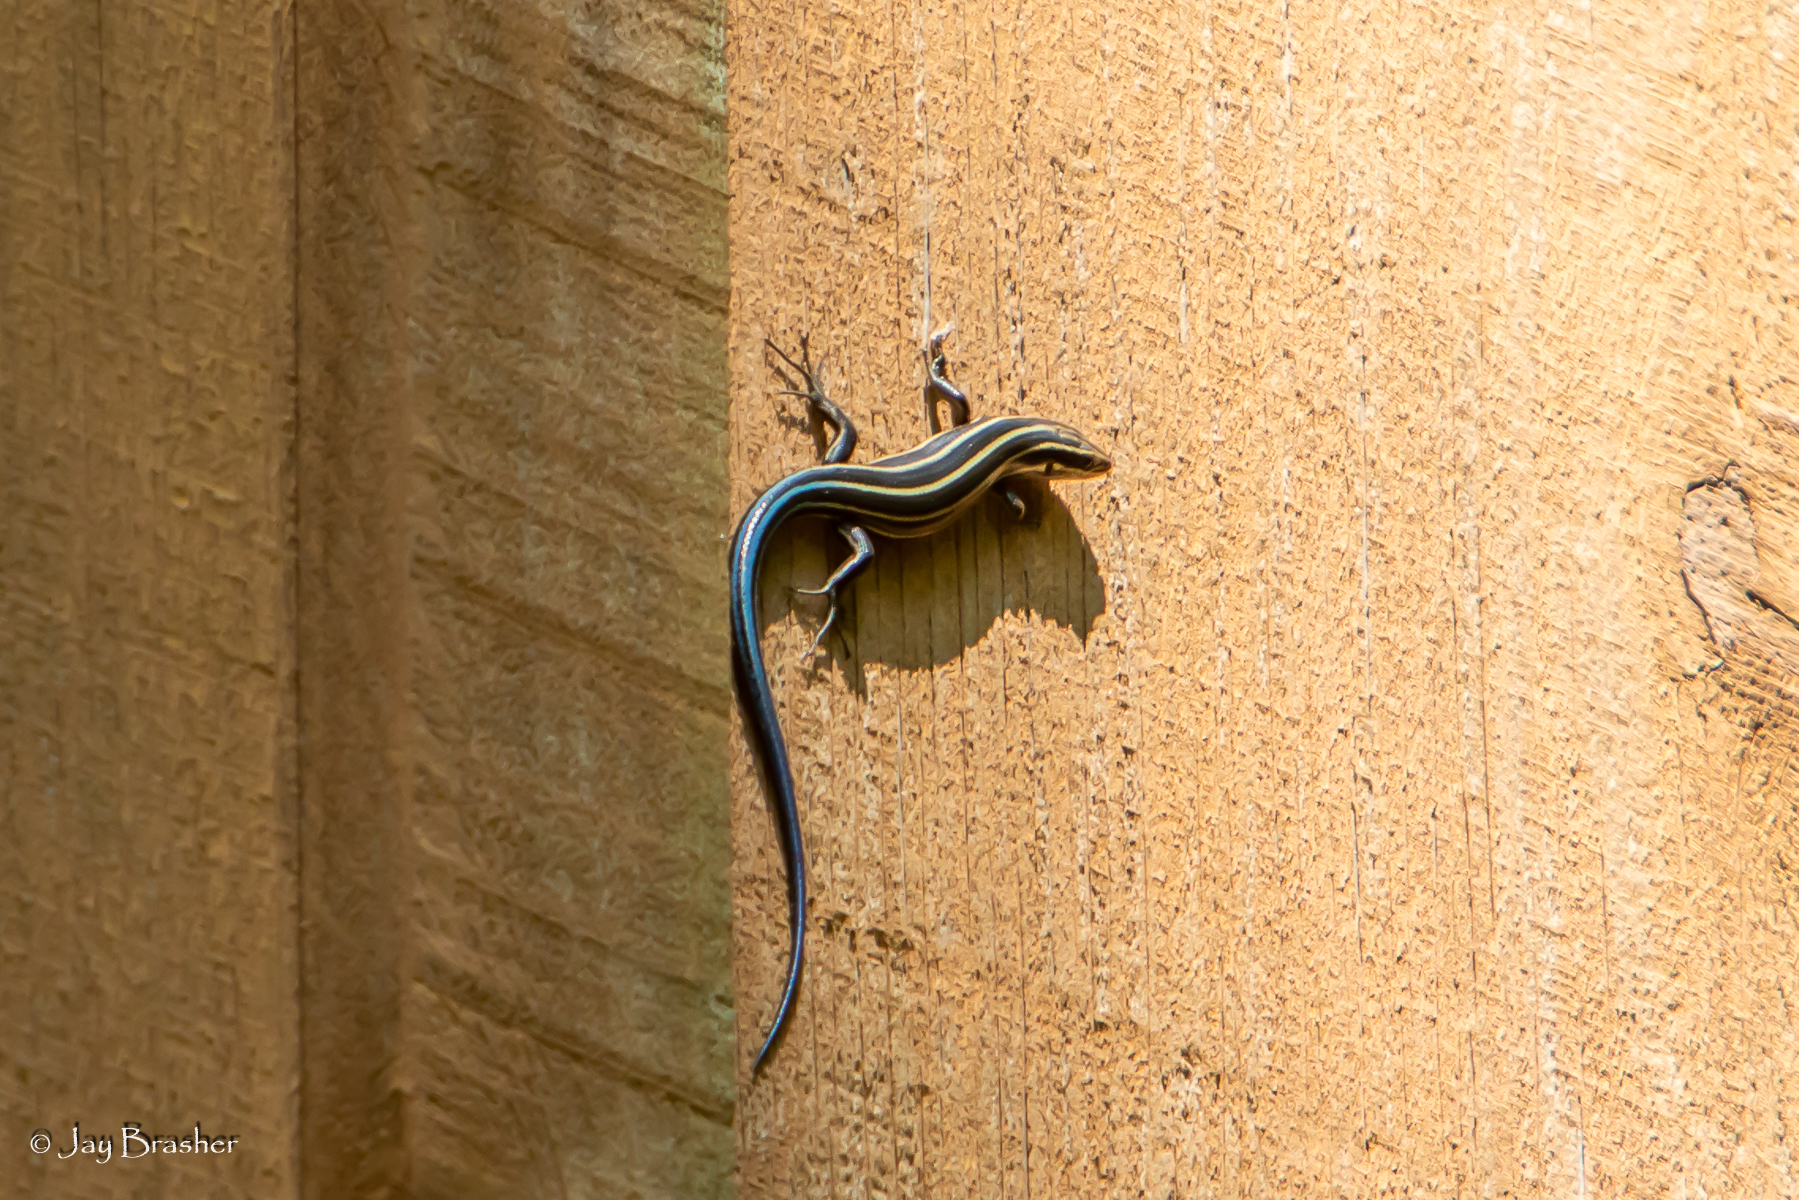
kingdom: Animalia
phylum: Chordata
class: Squamata
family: Scincidae
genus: Plestiodon
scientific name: Plestiodon fasciatus
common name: Five-lined skink
